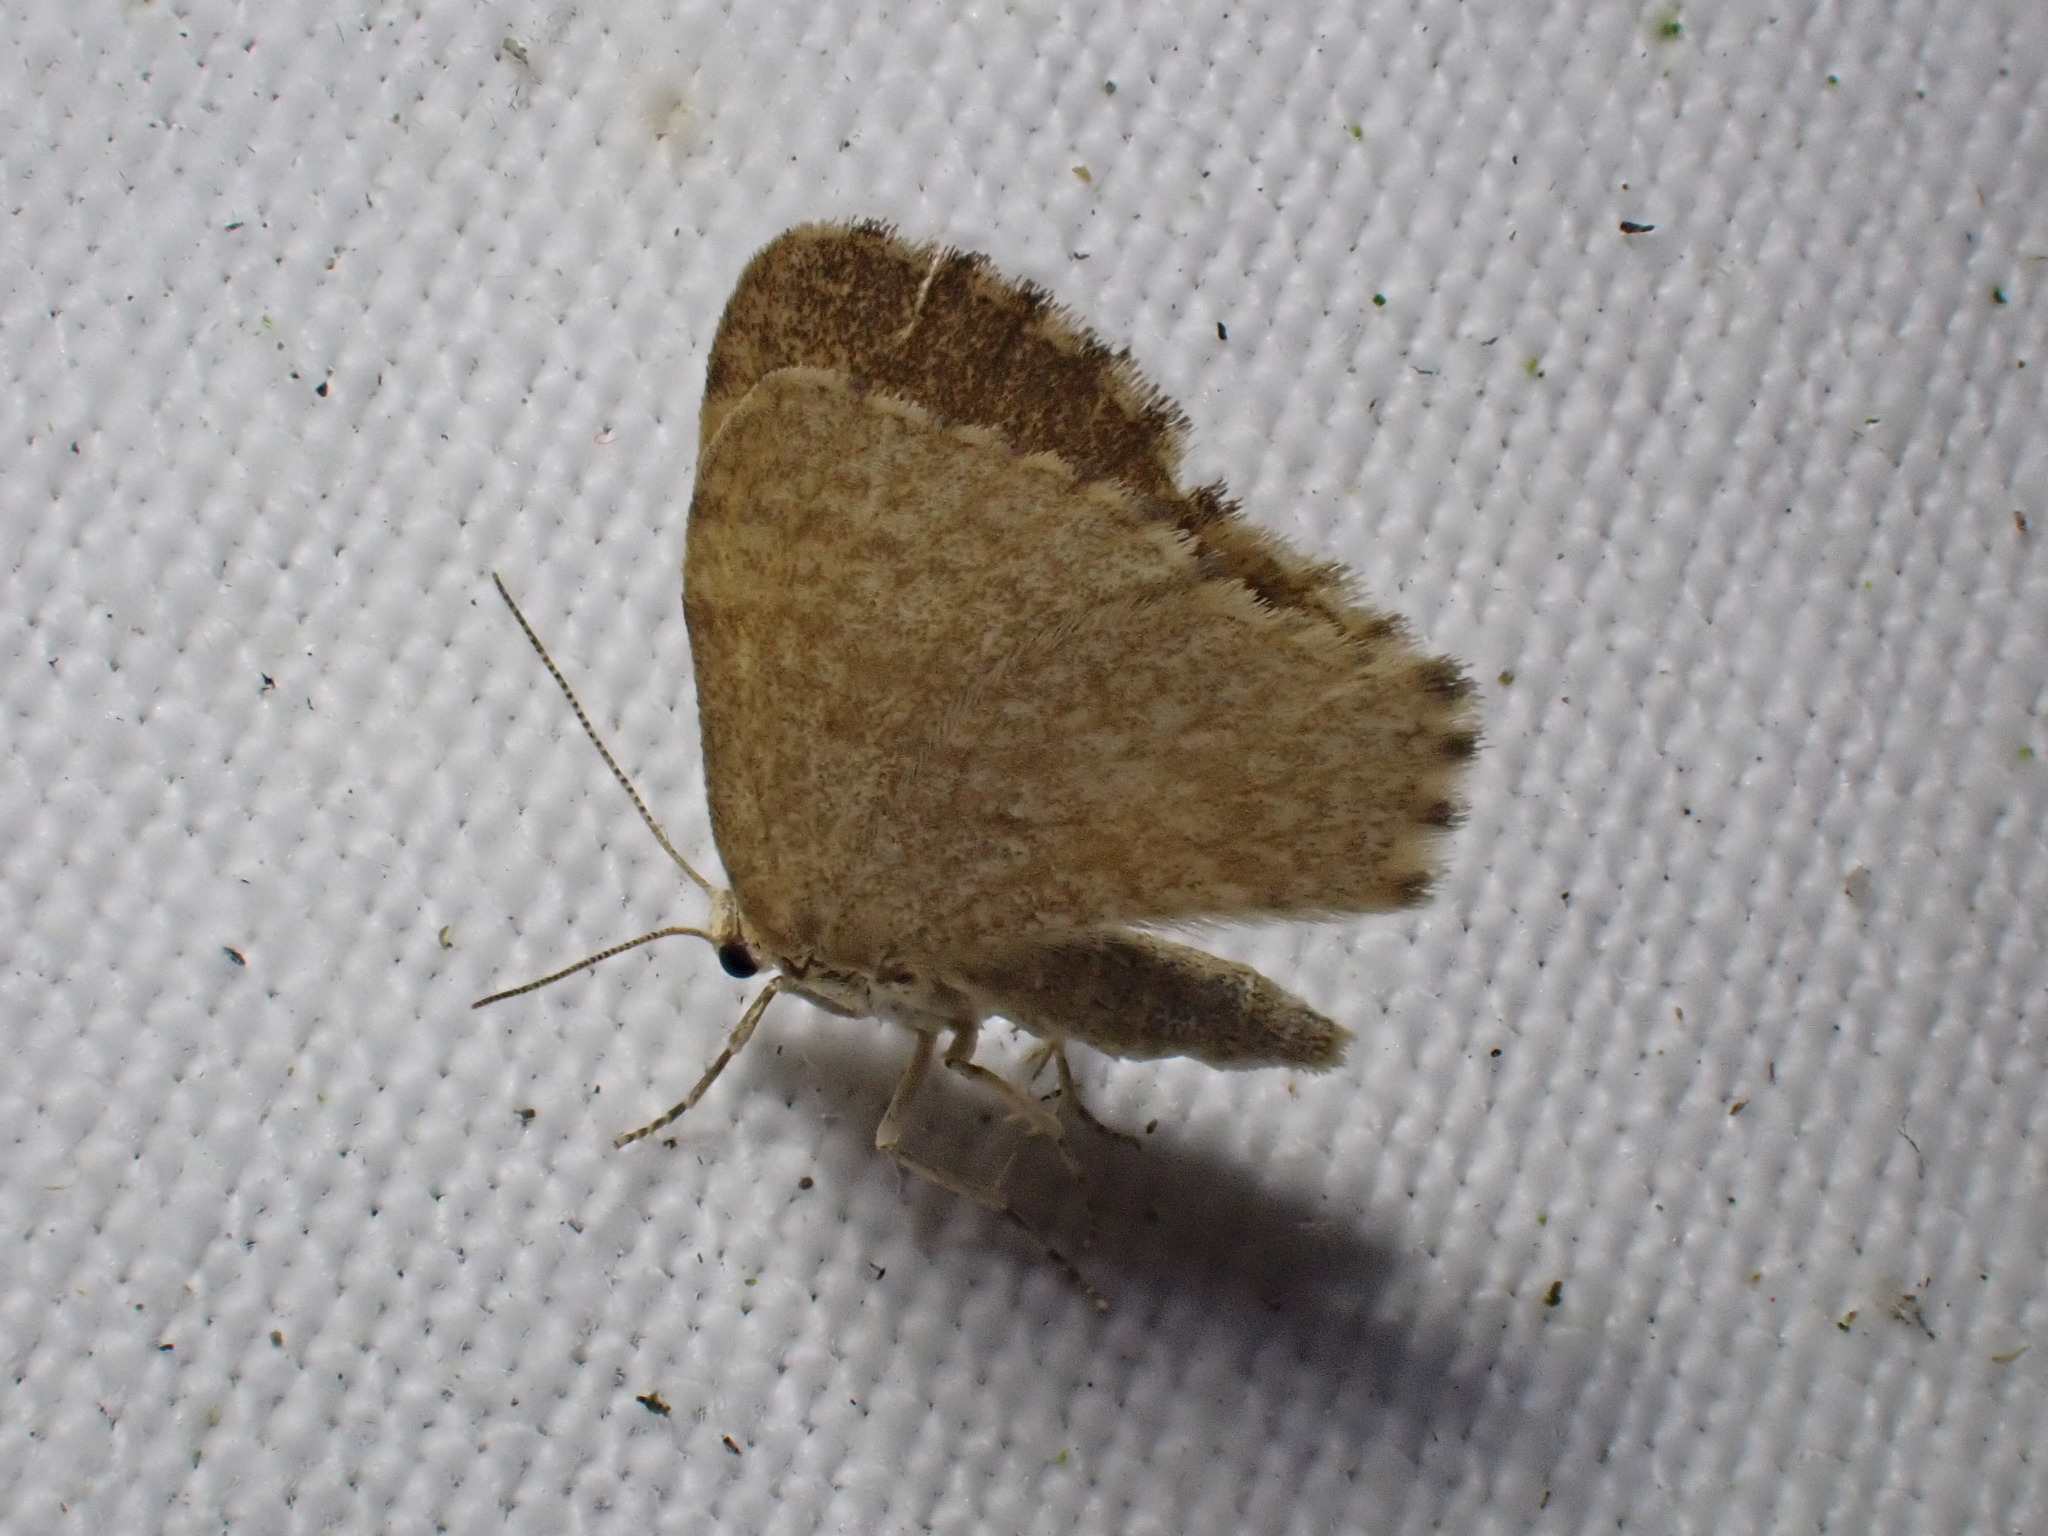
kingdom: Animalia
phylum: Arthropoda
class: Insecta
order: Lepidoptera
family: Geometridae
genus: Euchoeca
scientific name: Euchoeca nebulata
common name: Dingy shell
